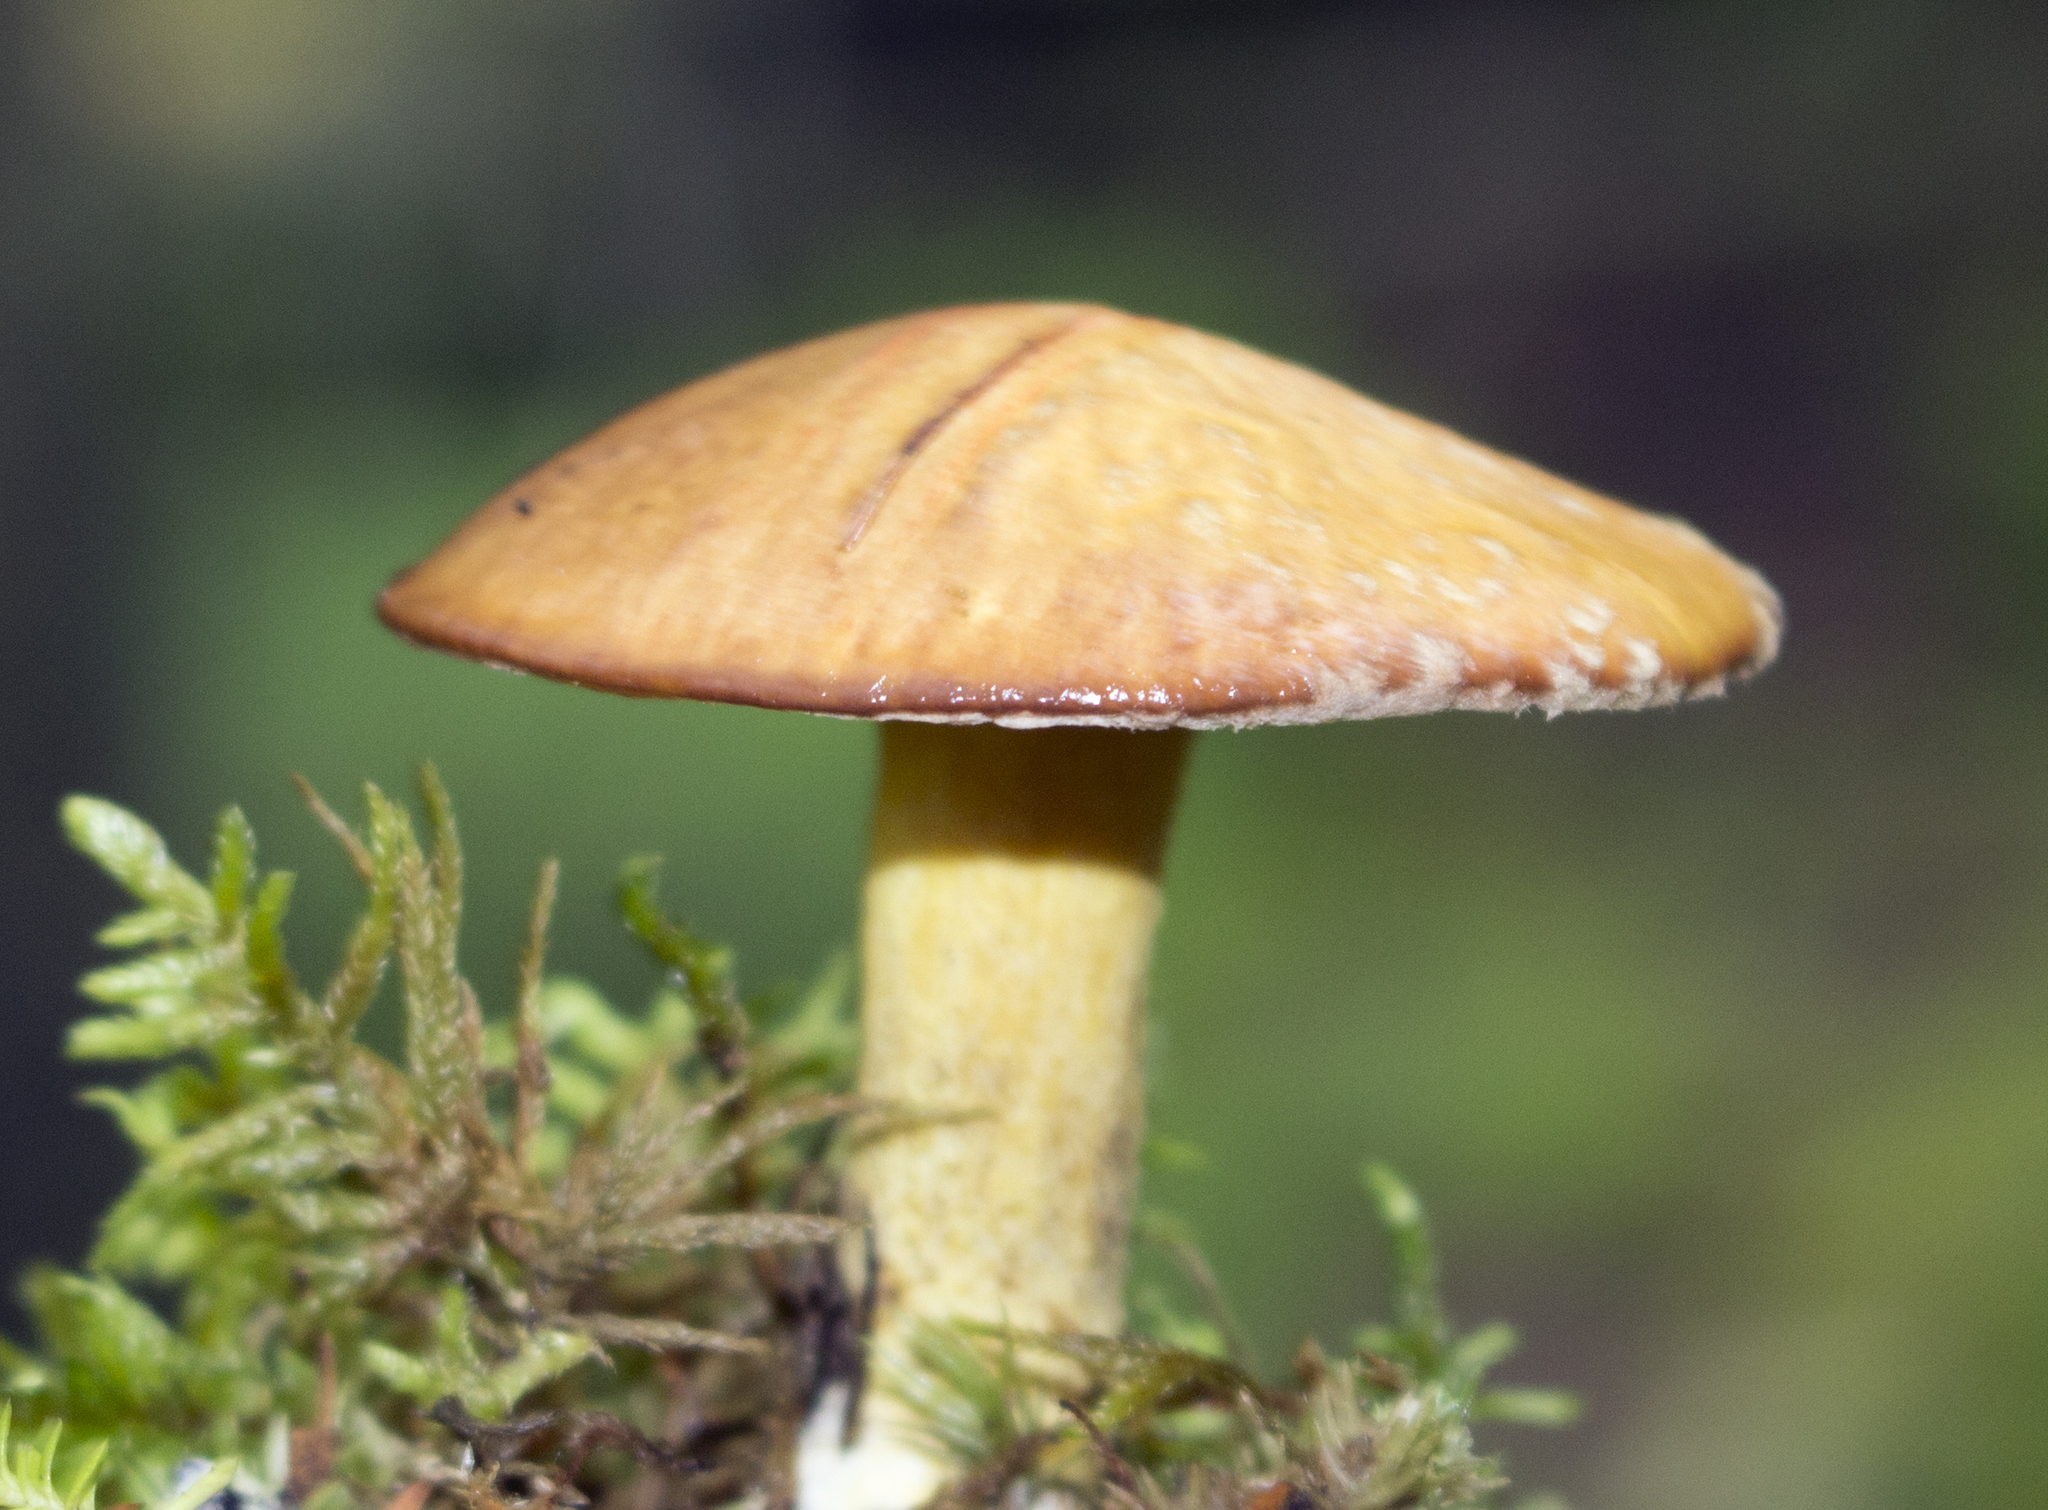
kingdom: Fungi
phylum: Basidiomycota
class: Agaricomycetes
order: Boletales
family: Suillaceae
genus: Suillus
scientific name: Suillus subaureus
